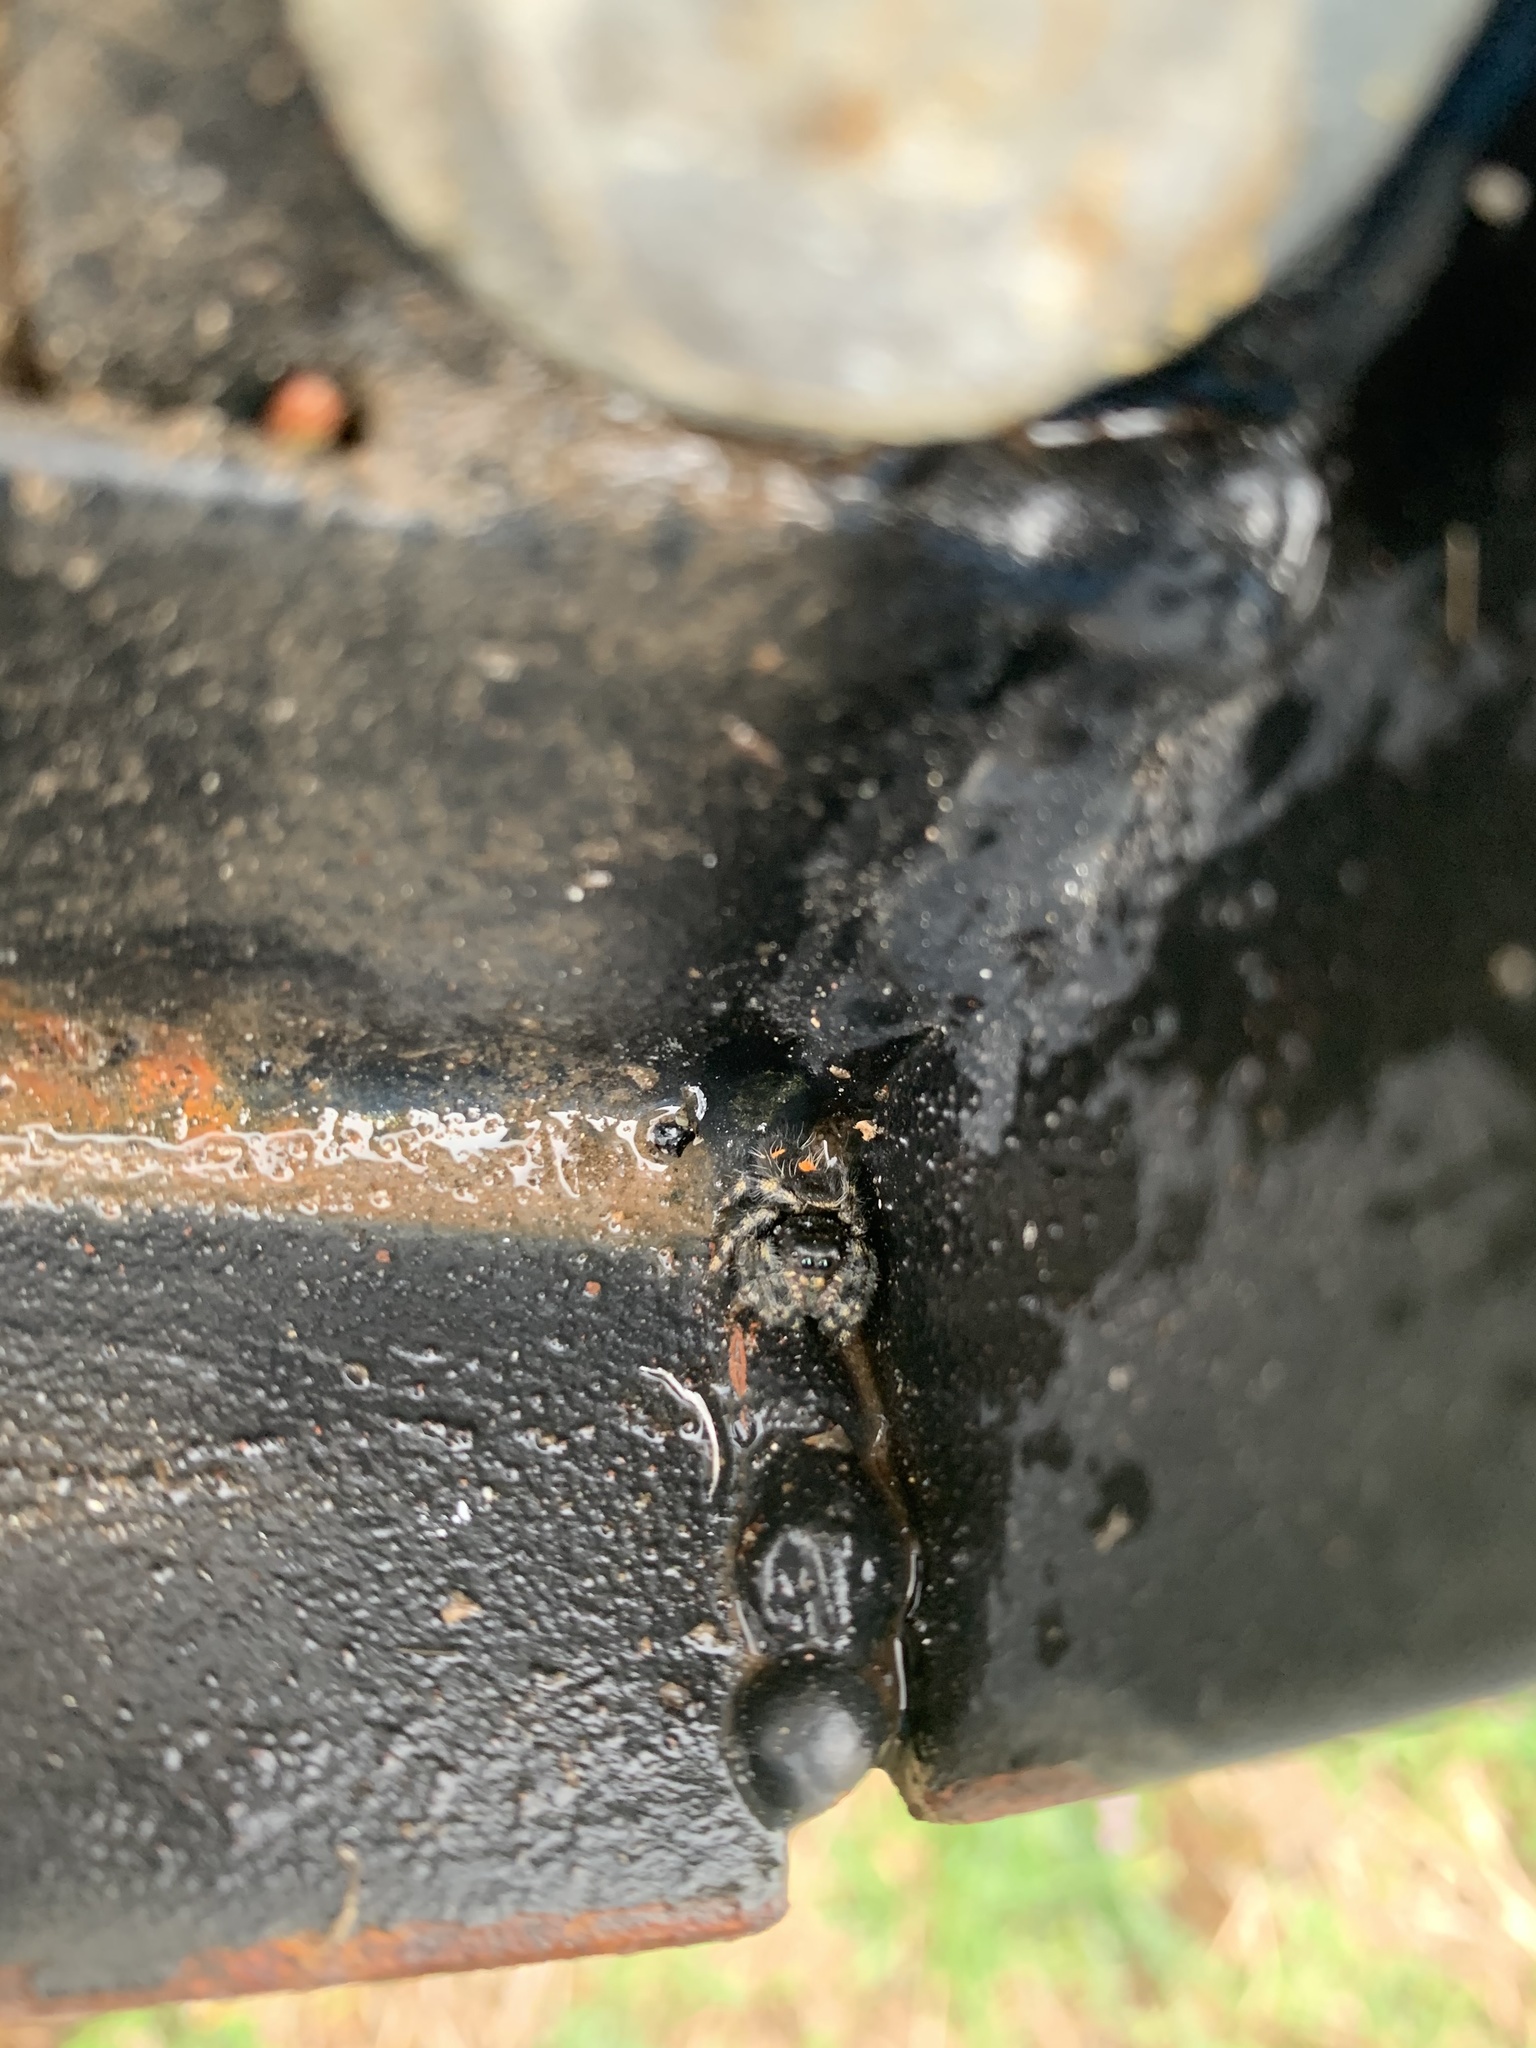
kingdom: Animalia
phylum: Arthropoda
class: Arachnida
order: Araneae
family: Salticidae
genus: Phidippus
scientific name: Phidippus audax
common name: Bold jumper
